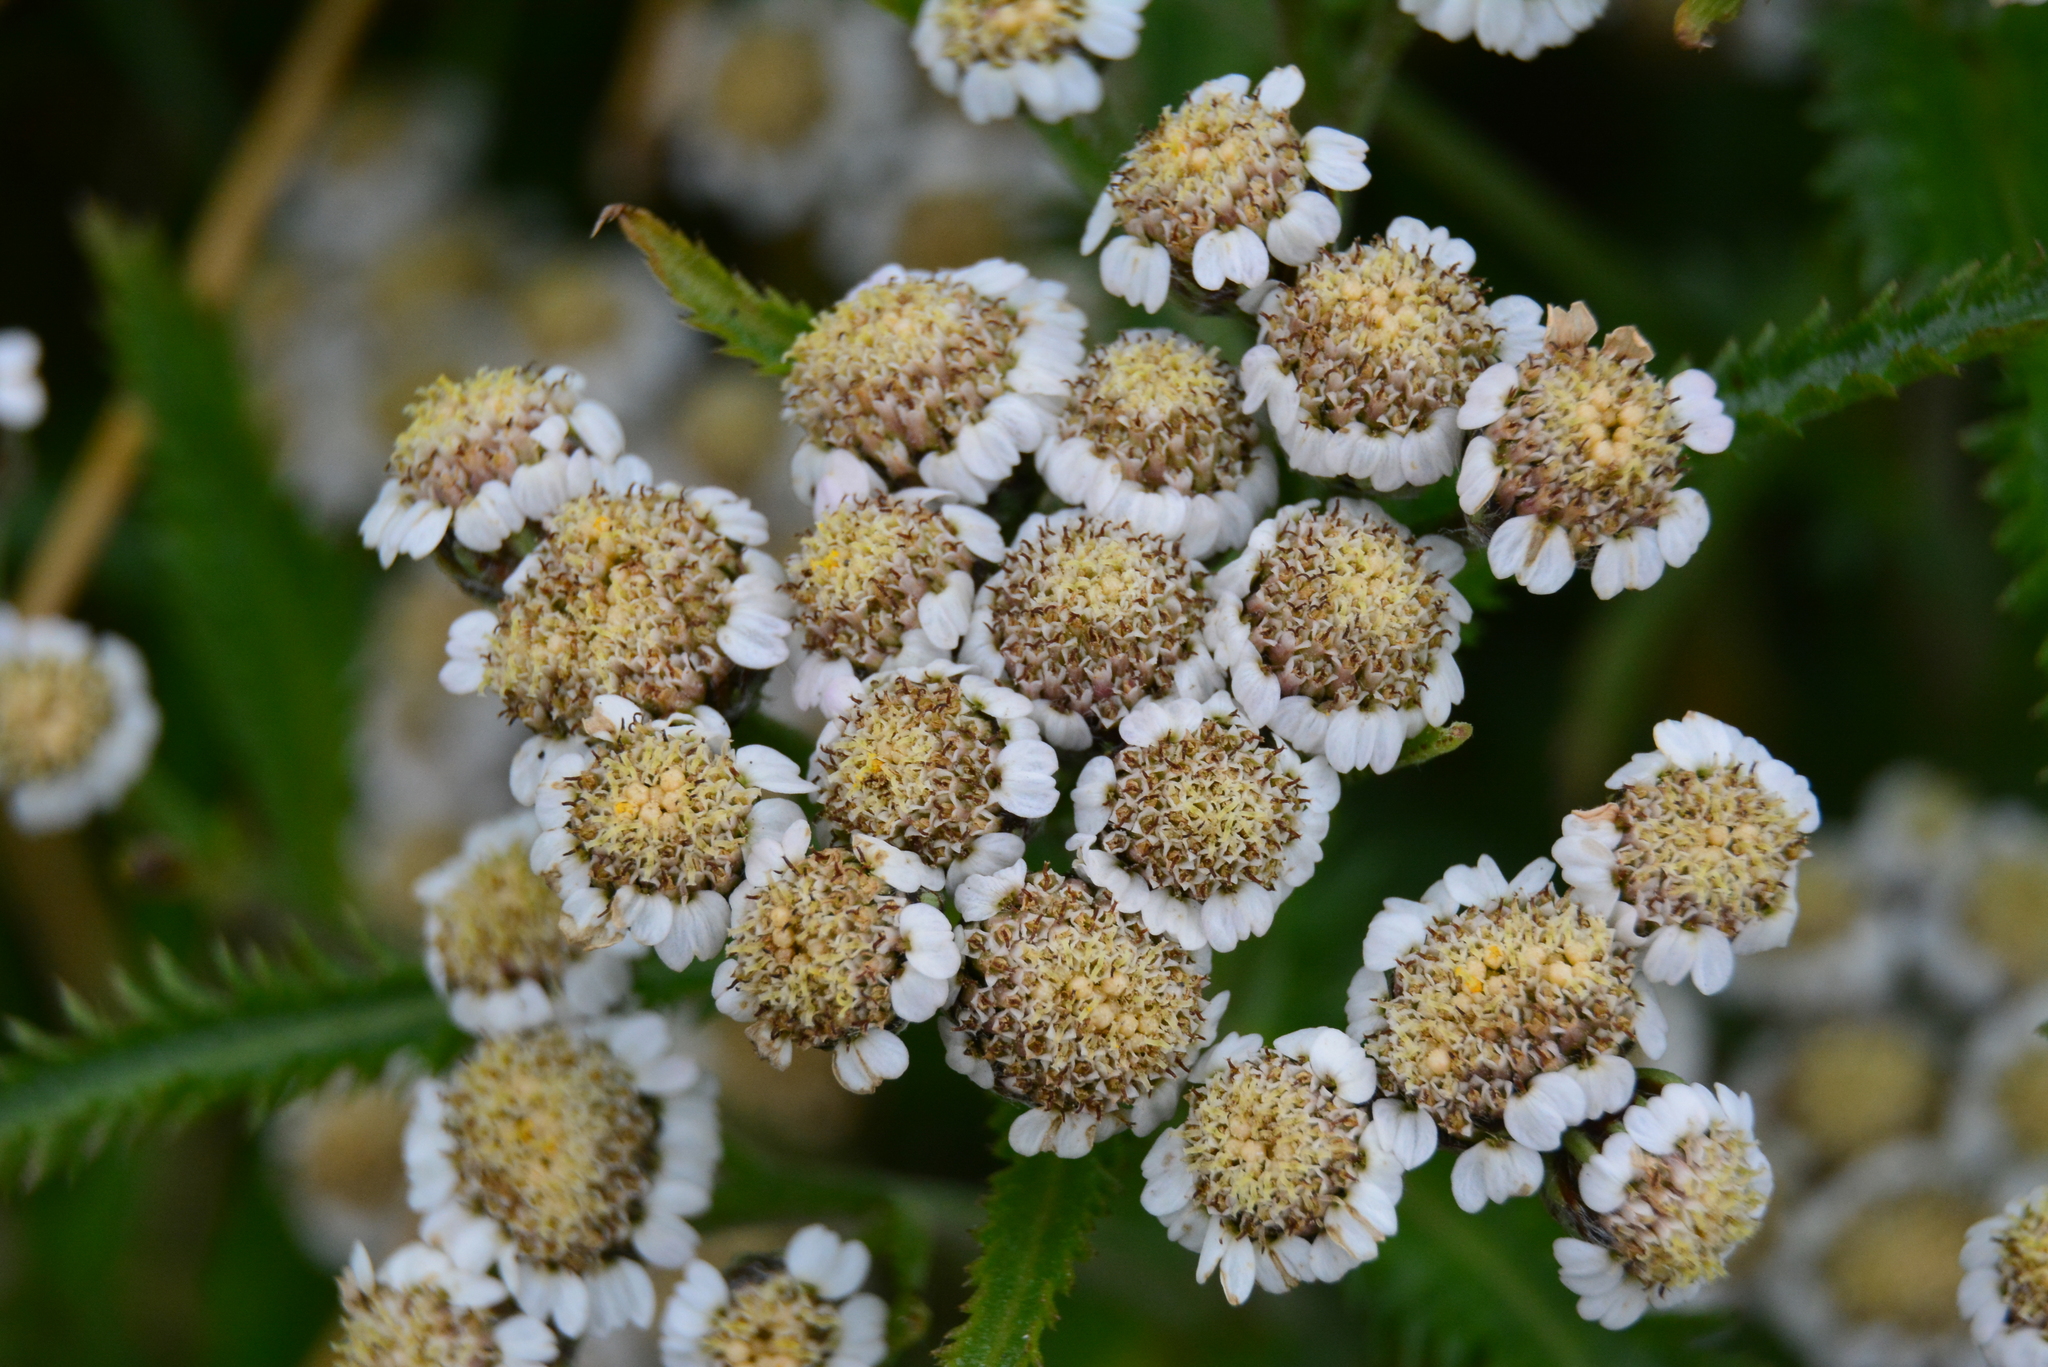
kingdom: Plantae
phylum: Tracheophyta
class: Magnoliopsida
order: Asterales
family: Asteraceae
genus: Achillea
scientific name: Achillea alpina
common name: Siberian yarrow
